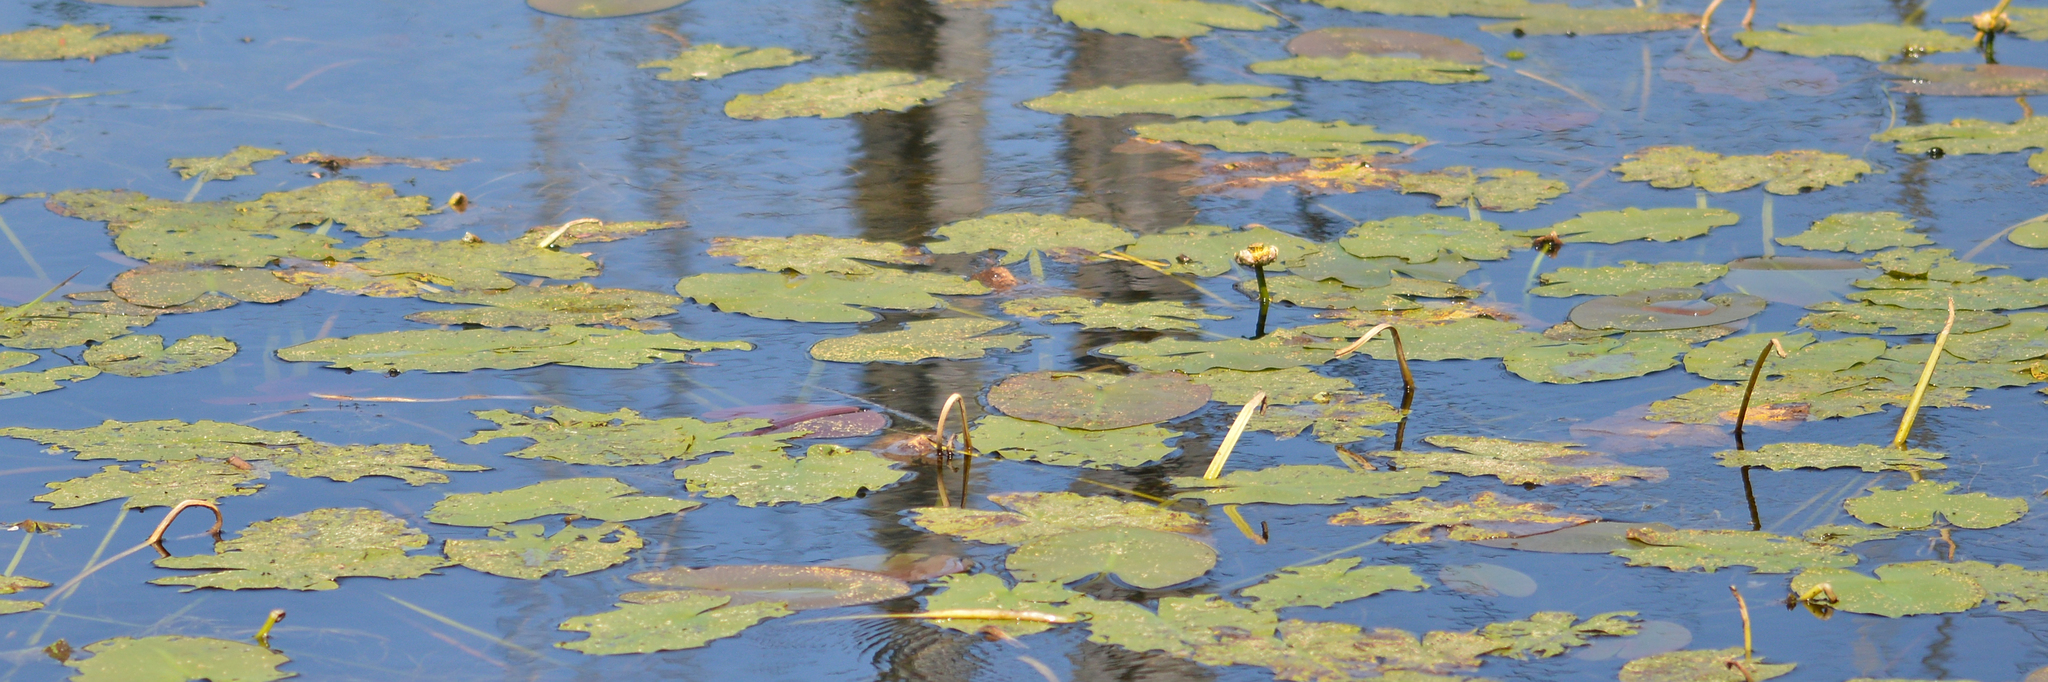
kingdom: Plantae
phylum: Tracheophyta
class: Magnoliopsida
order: Nymphaeales
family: Nymphaeaceae
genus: Nuphar
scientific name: Nuphar variegata
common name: Beaver-root
